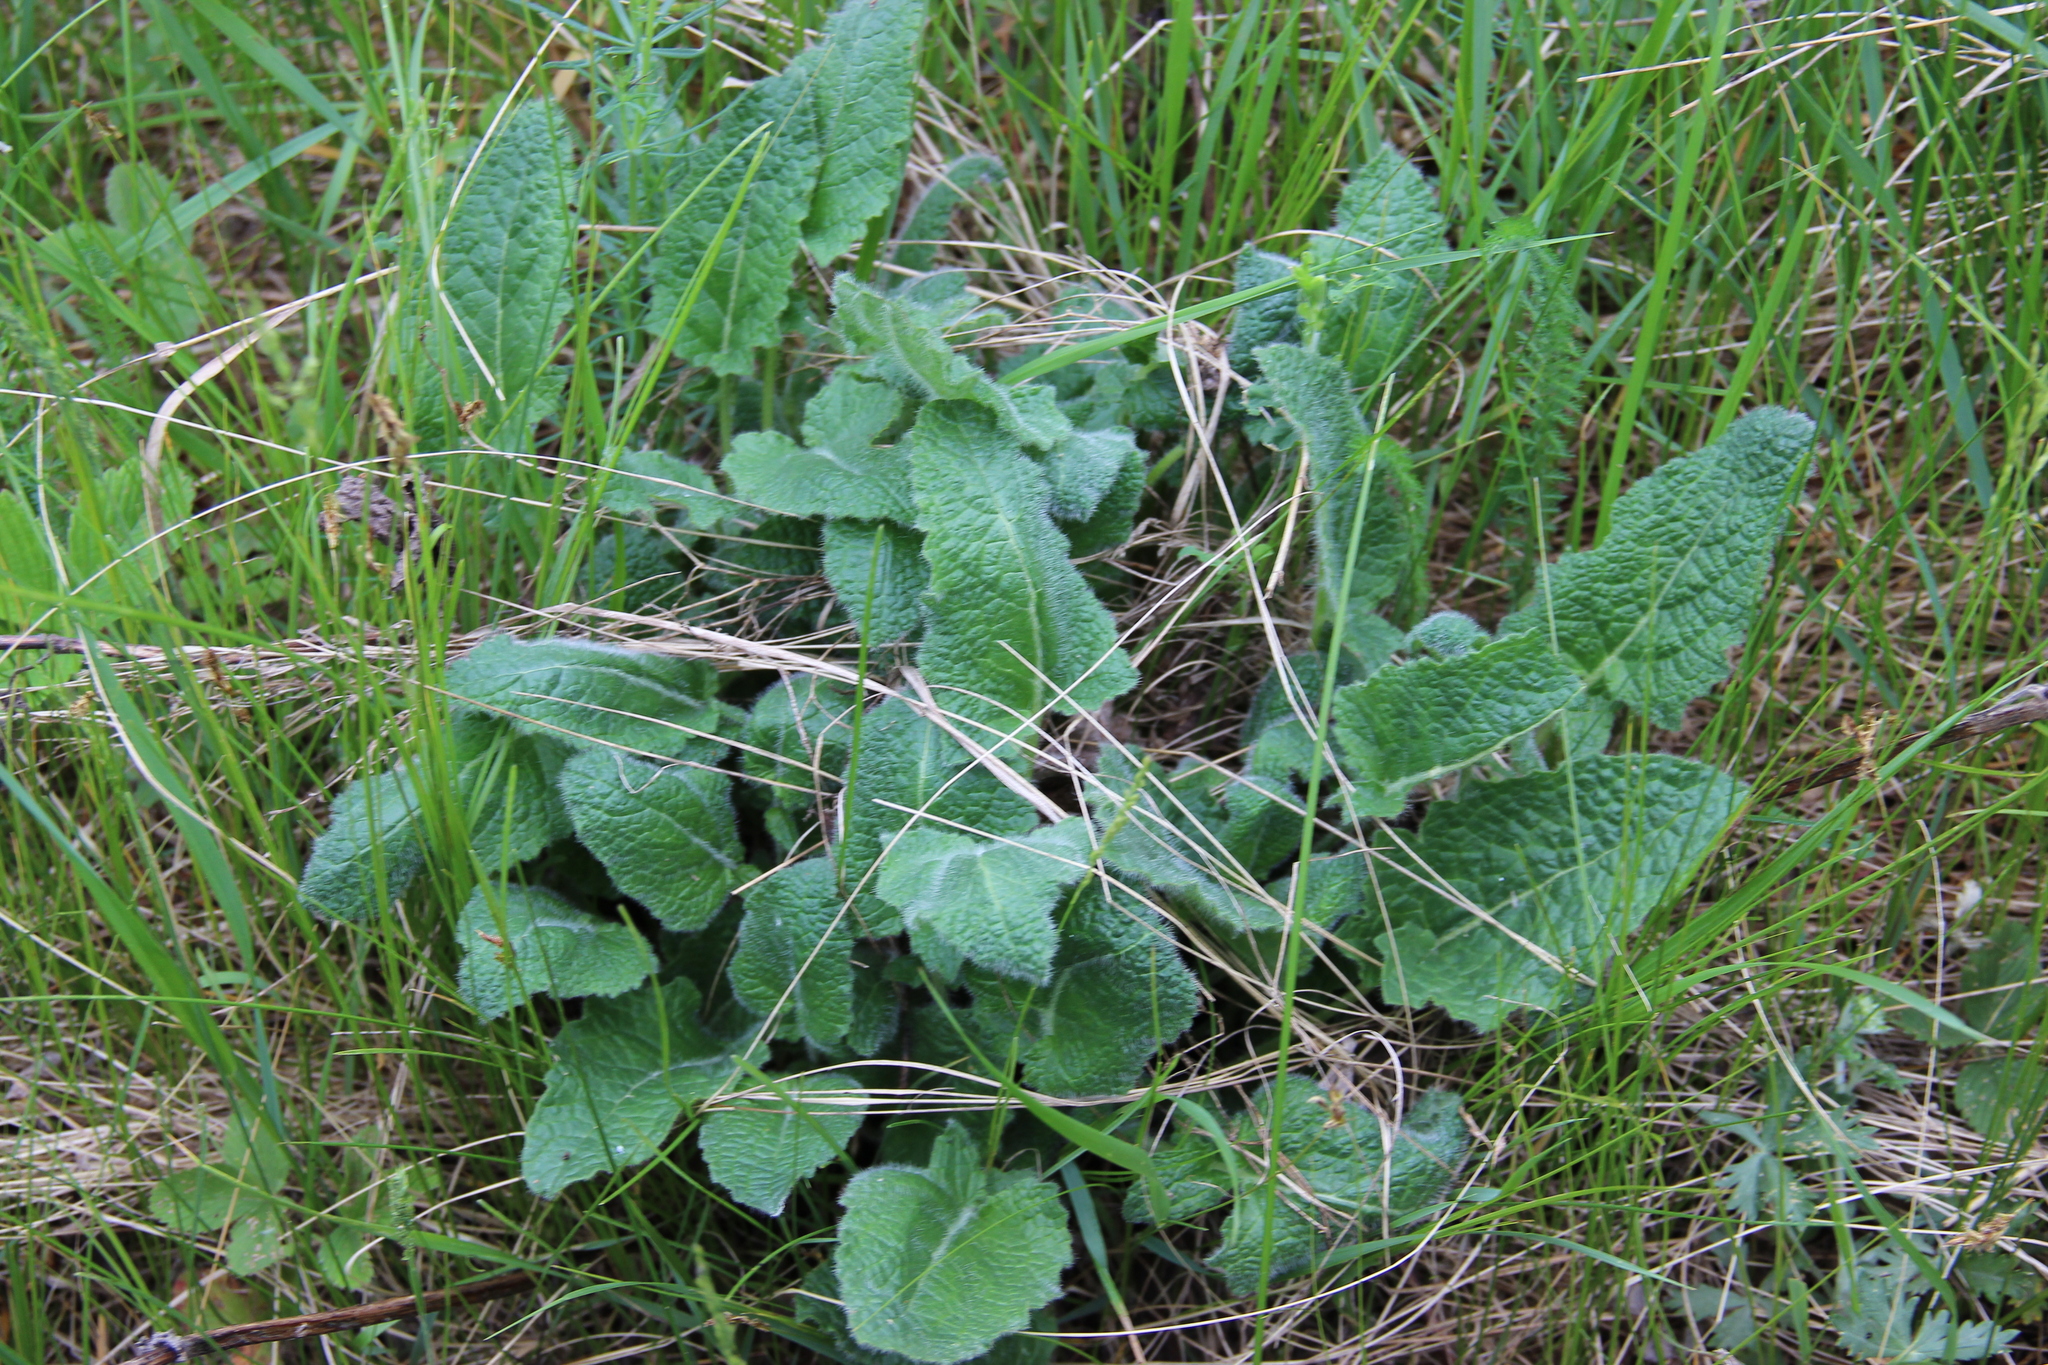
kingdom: Plantae
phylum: Tracheophyta
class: Magnoliopsida
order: Lamiales
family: Lamiaceae
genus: Salvia
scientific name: Salvia verticillata
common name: Whorled clary
